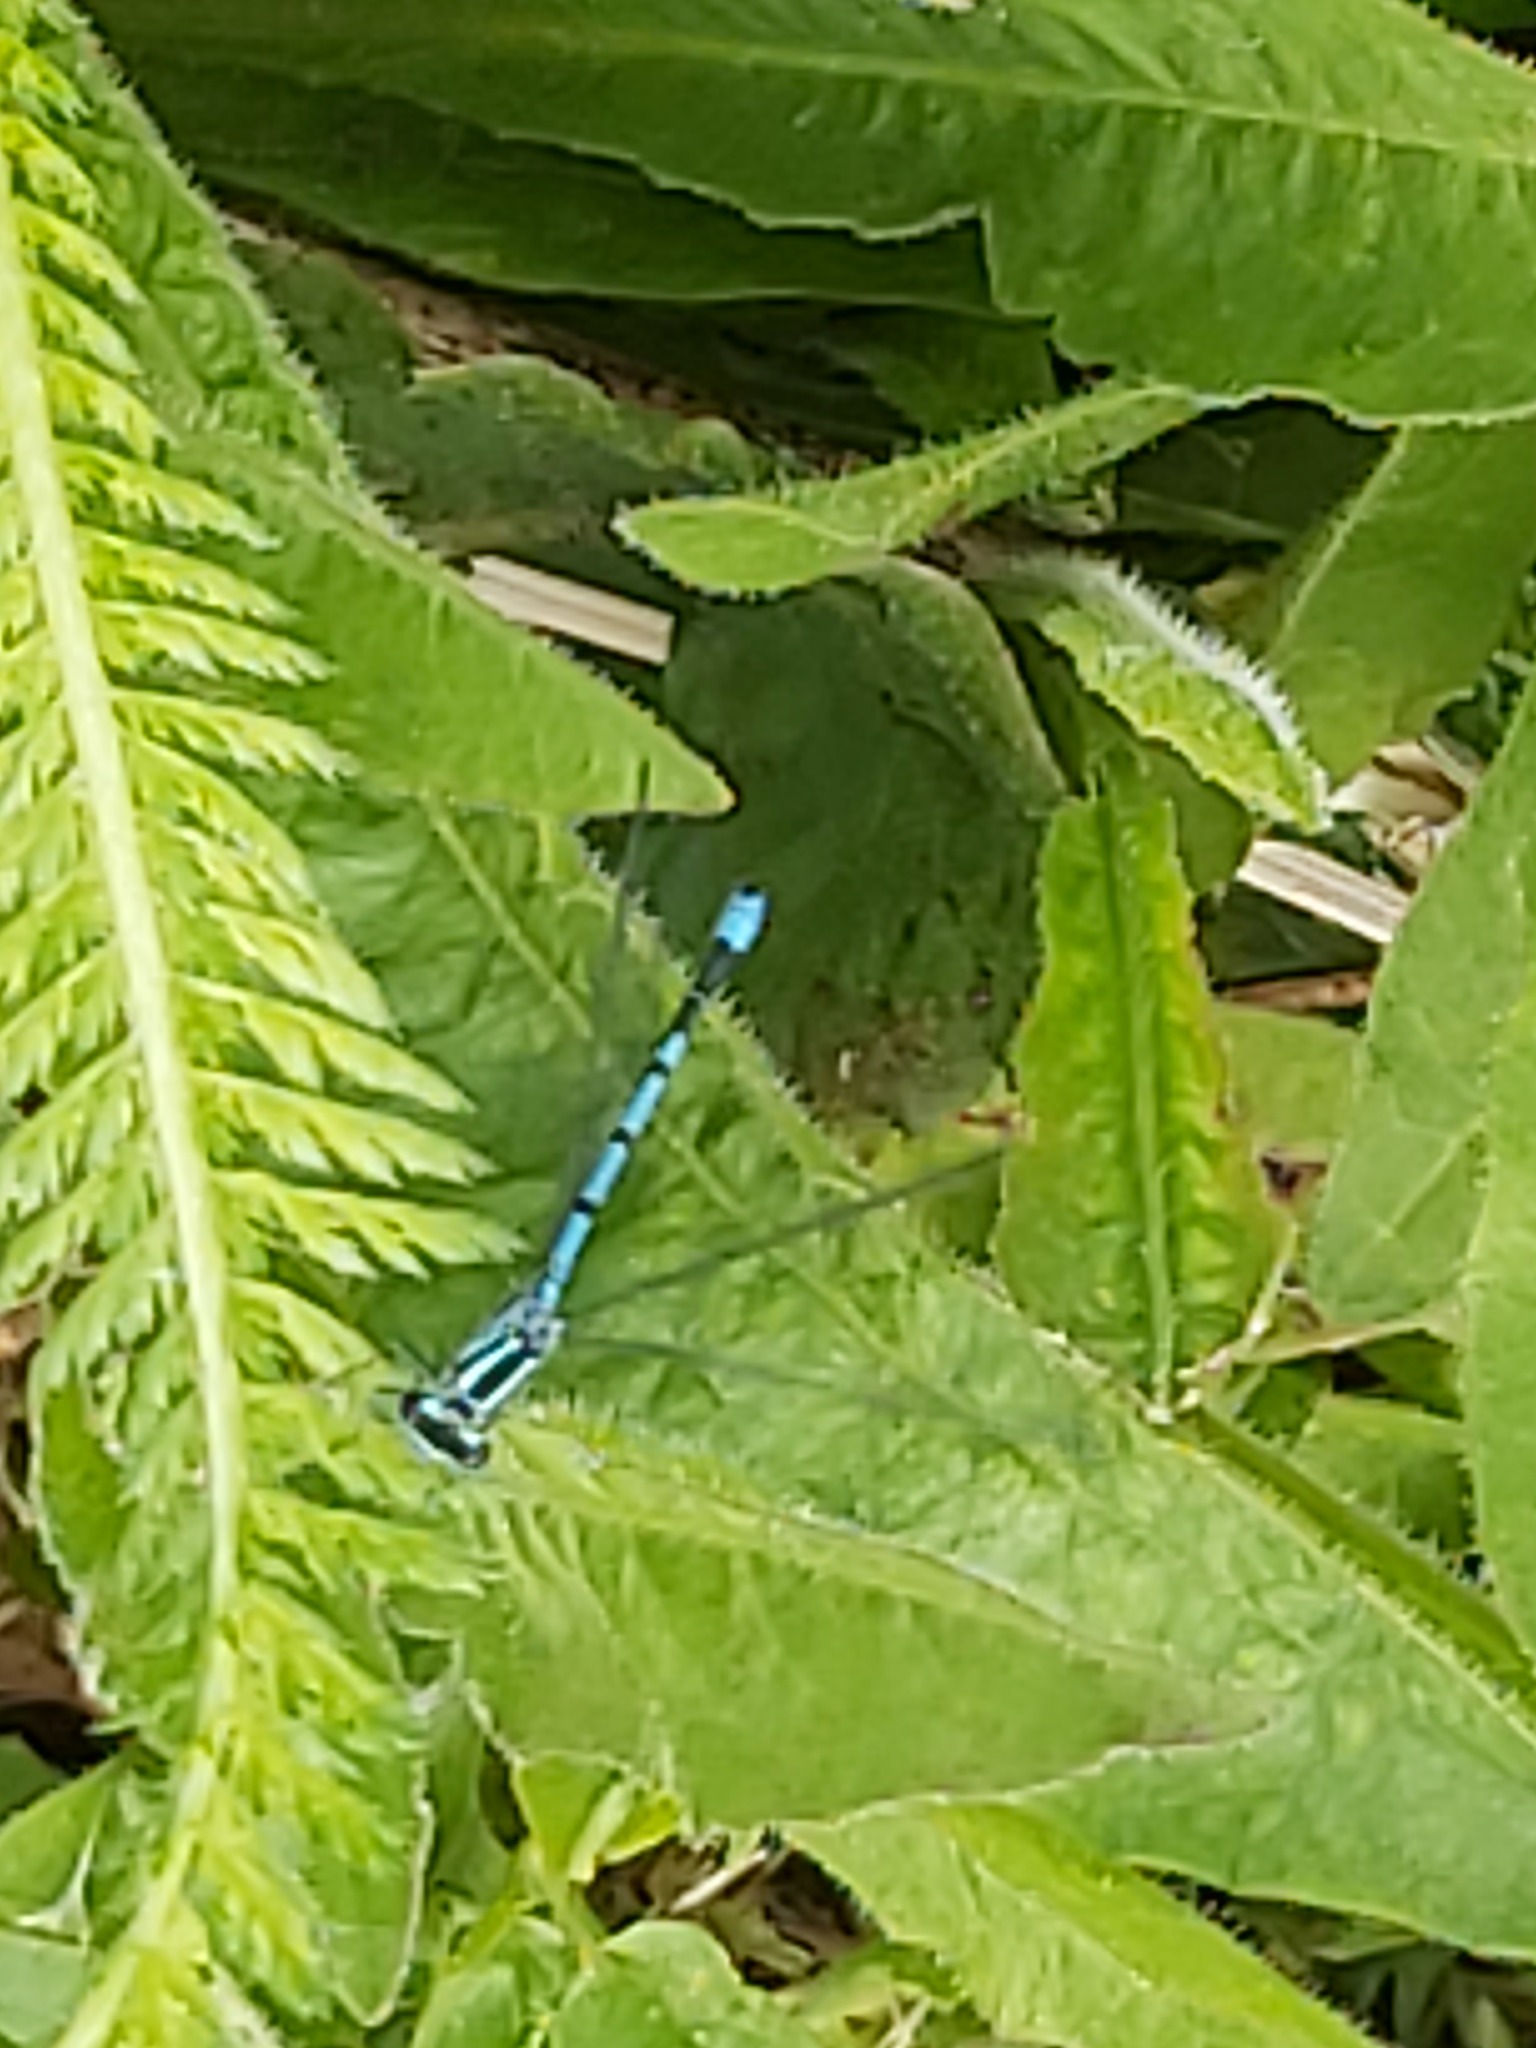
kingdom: Animalia
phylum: Arthropoda
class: Insecta
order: Odonata
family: Coenagrionidae
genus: Coenagrion
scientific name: Coenagrion puella
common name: Azure damselfly
